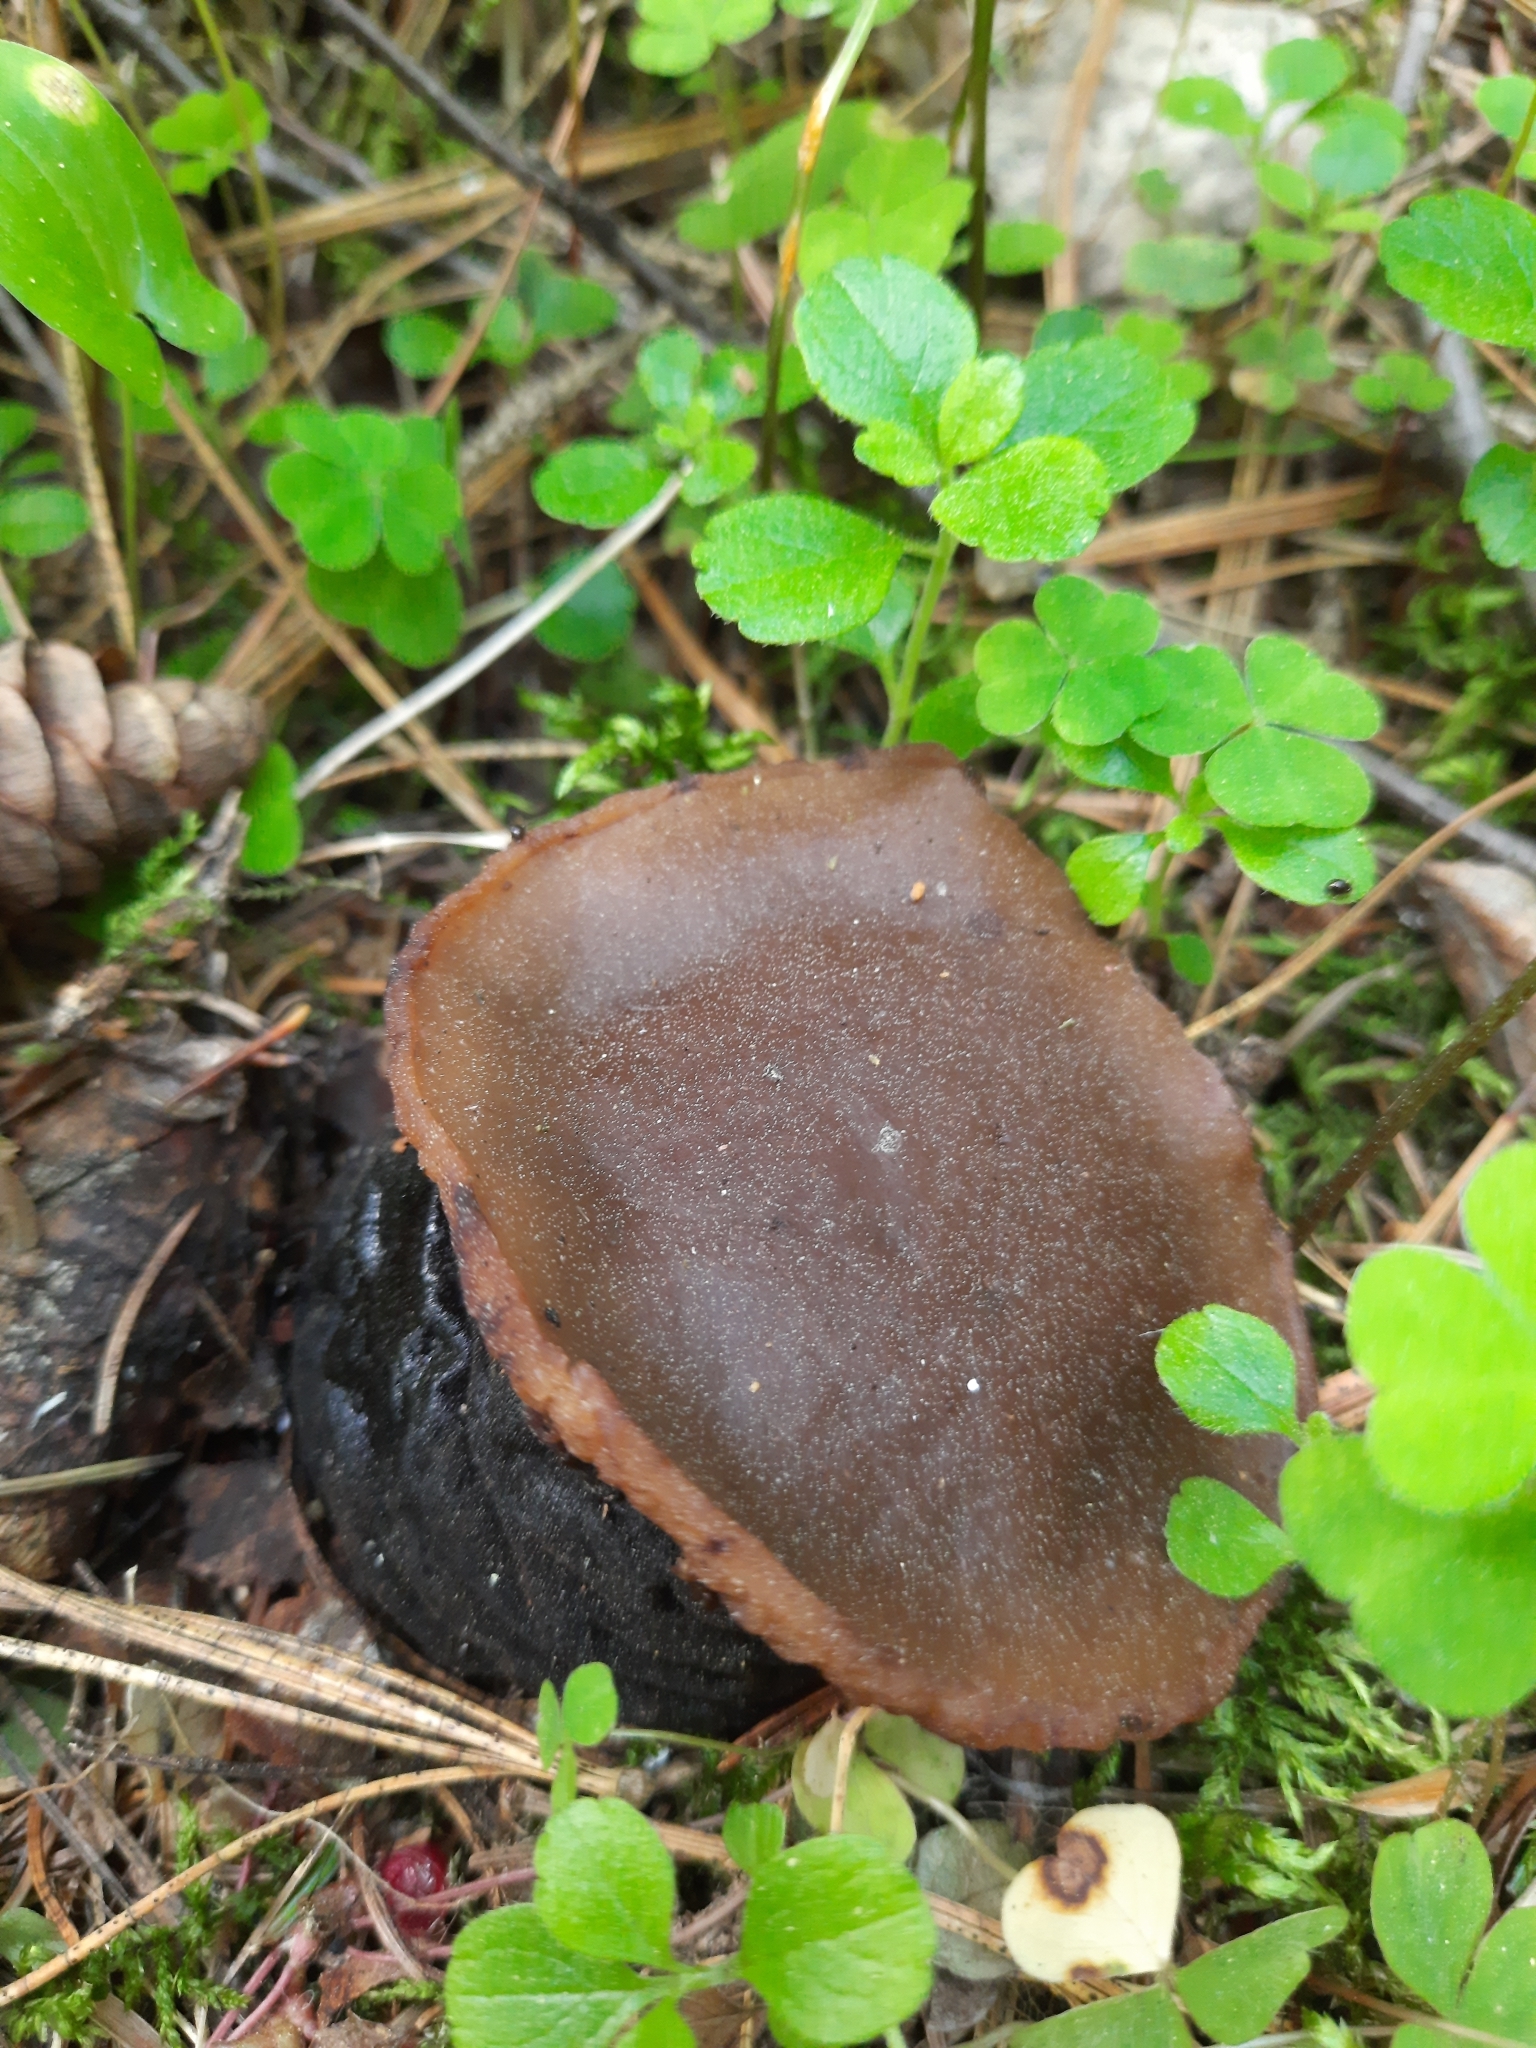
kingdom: Fungi
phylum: Ascomycota
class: Pezizomycetes
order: Pezizales
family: Sarcosomataceae
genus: Sarcosoma
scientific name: Sarcosoma globosum
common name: Charred-pancake cup
